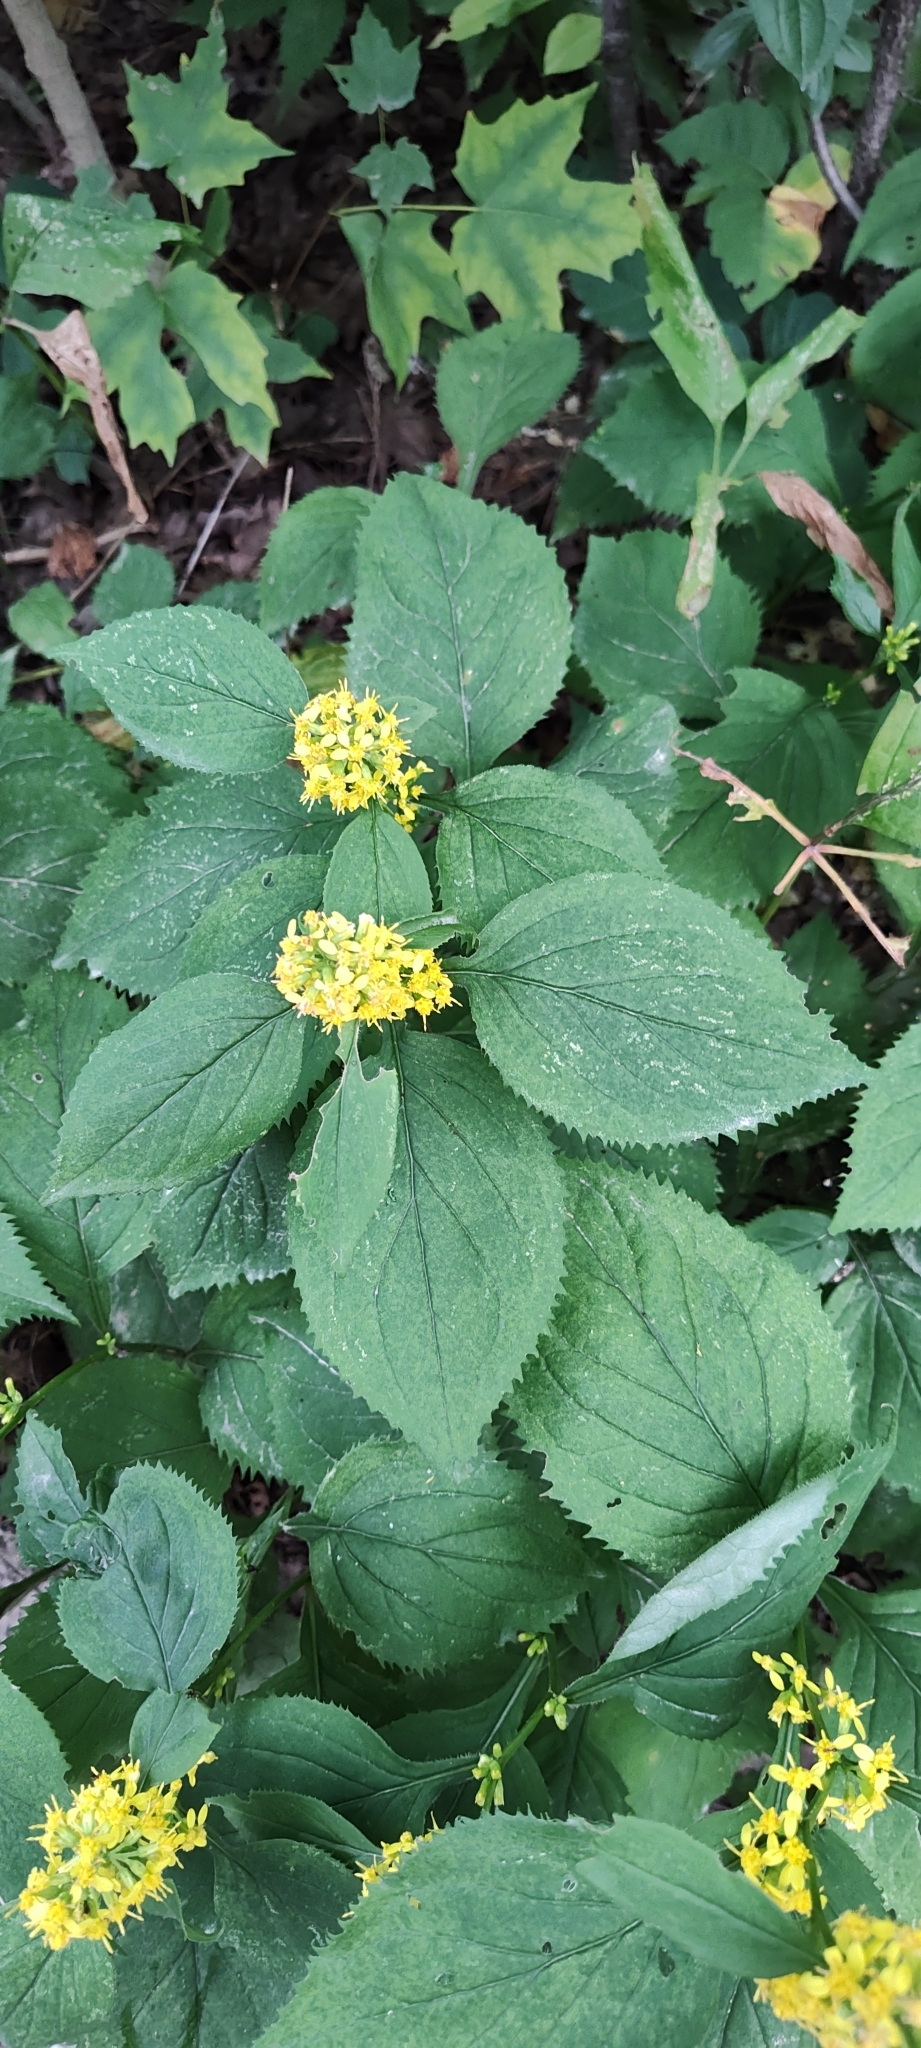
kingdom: Plantae
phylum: Tracheophyta
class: Magnoliopsida
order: Asterales
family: Asteraceae
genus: Solidago
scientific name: Solidago flexicaulis
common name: Zig-zag goldenrod
